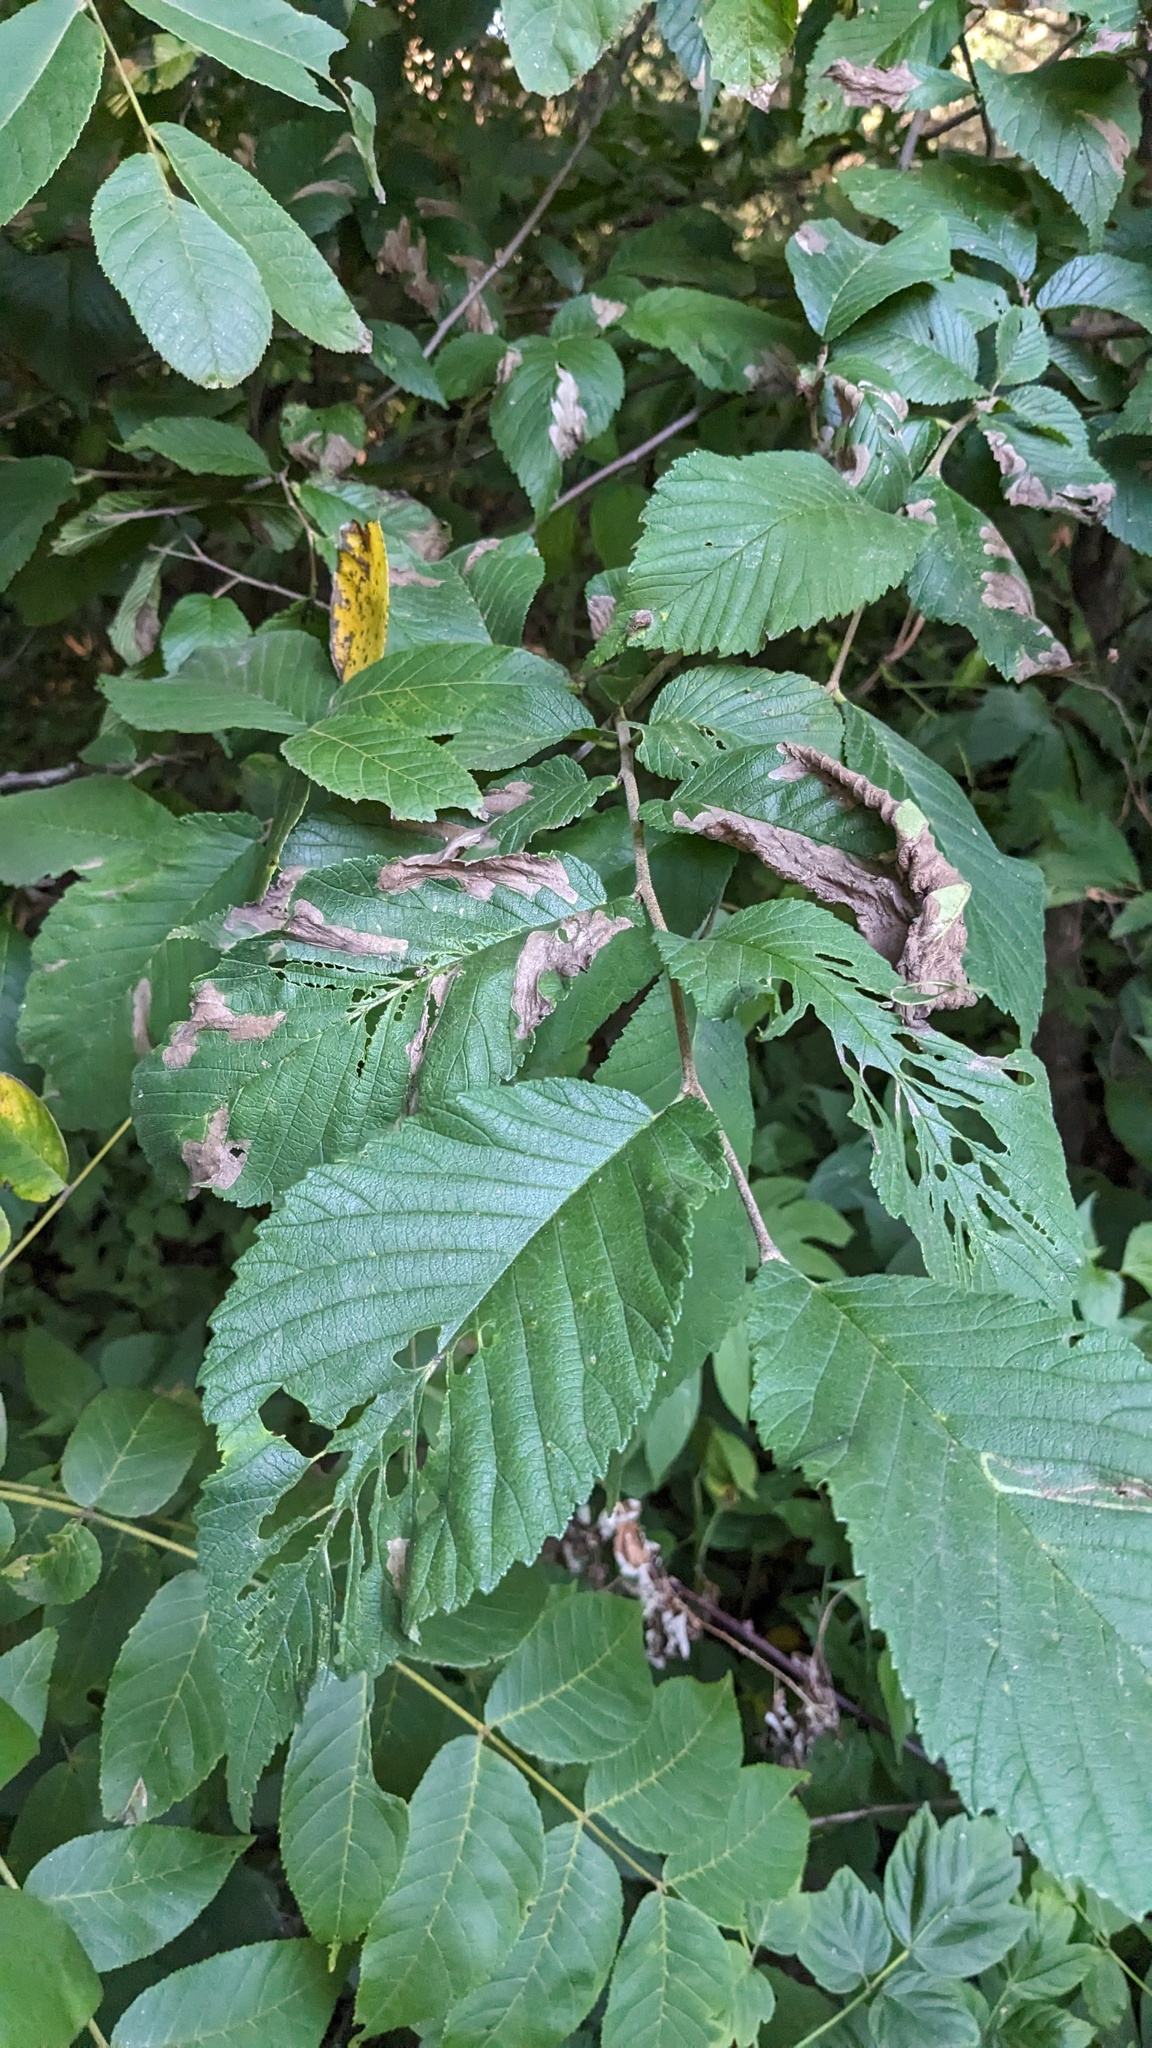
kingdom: Animalia
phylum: Arthropoda
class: Insecta
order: Hymenoptera
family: Tenthredinidae
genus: Fenusa
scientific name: Fenusa ulmi
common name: Elm leafminer
